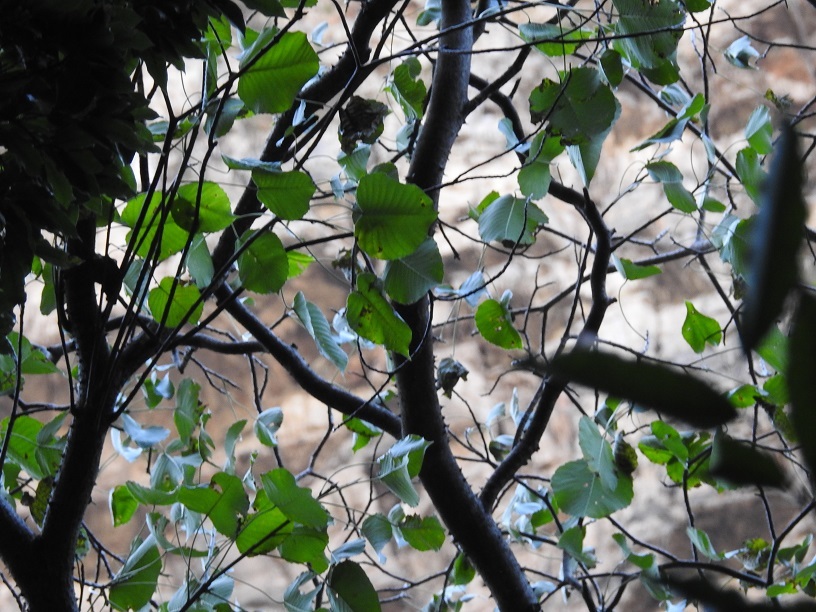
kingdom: Plantae
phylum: Tracheophyta
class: Magnoliopsida
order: Malpighiales
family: Euphorbiaceae
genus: Hura
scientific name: Hura polyandra
